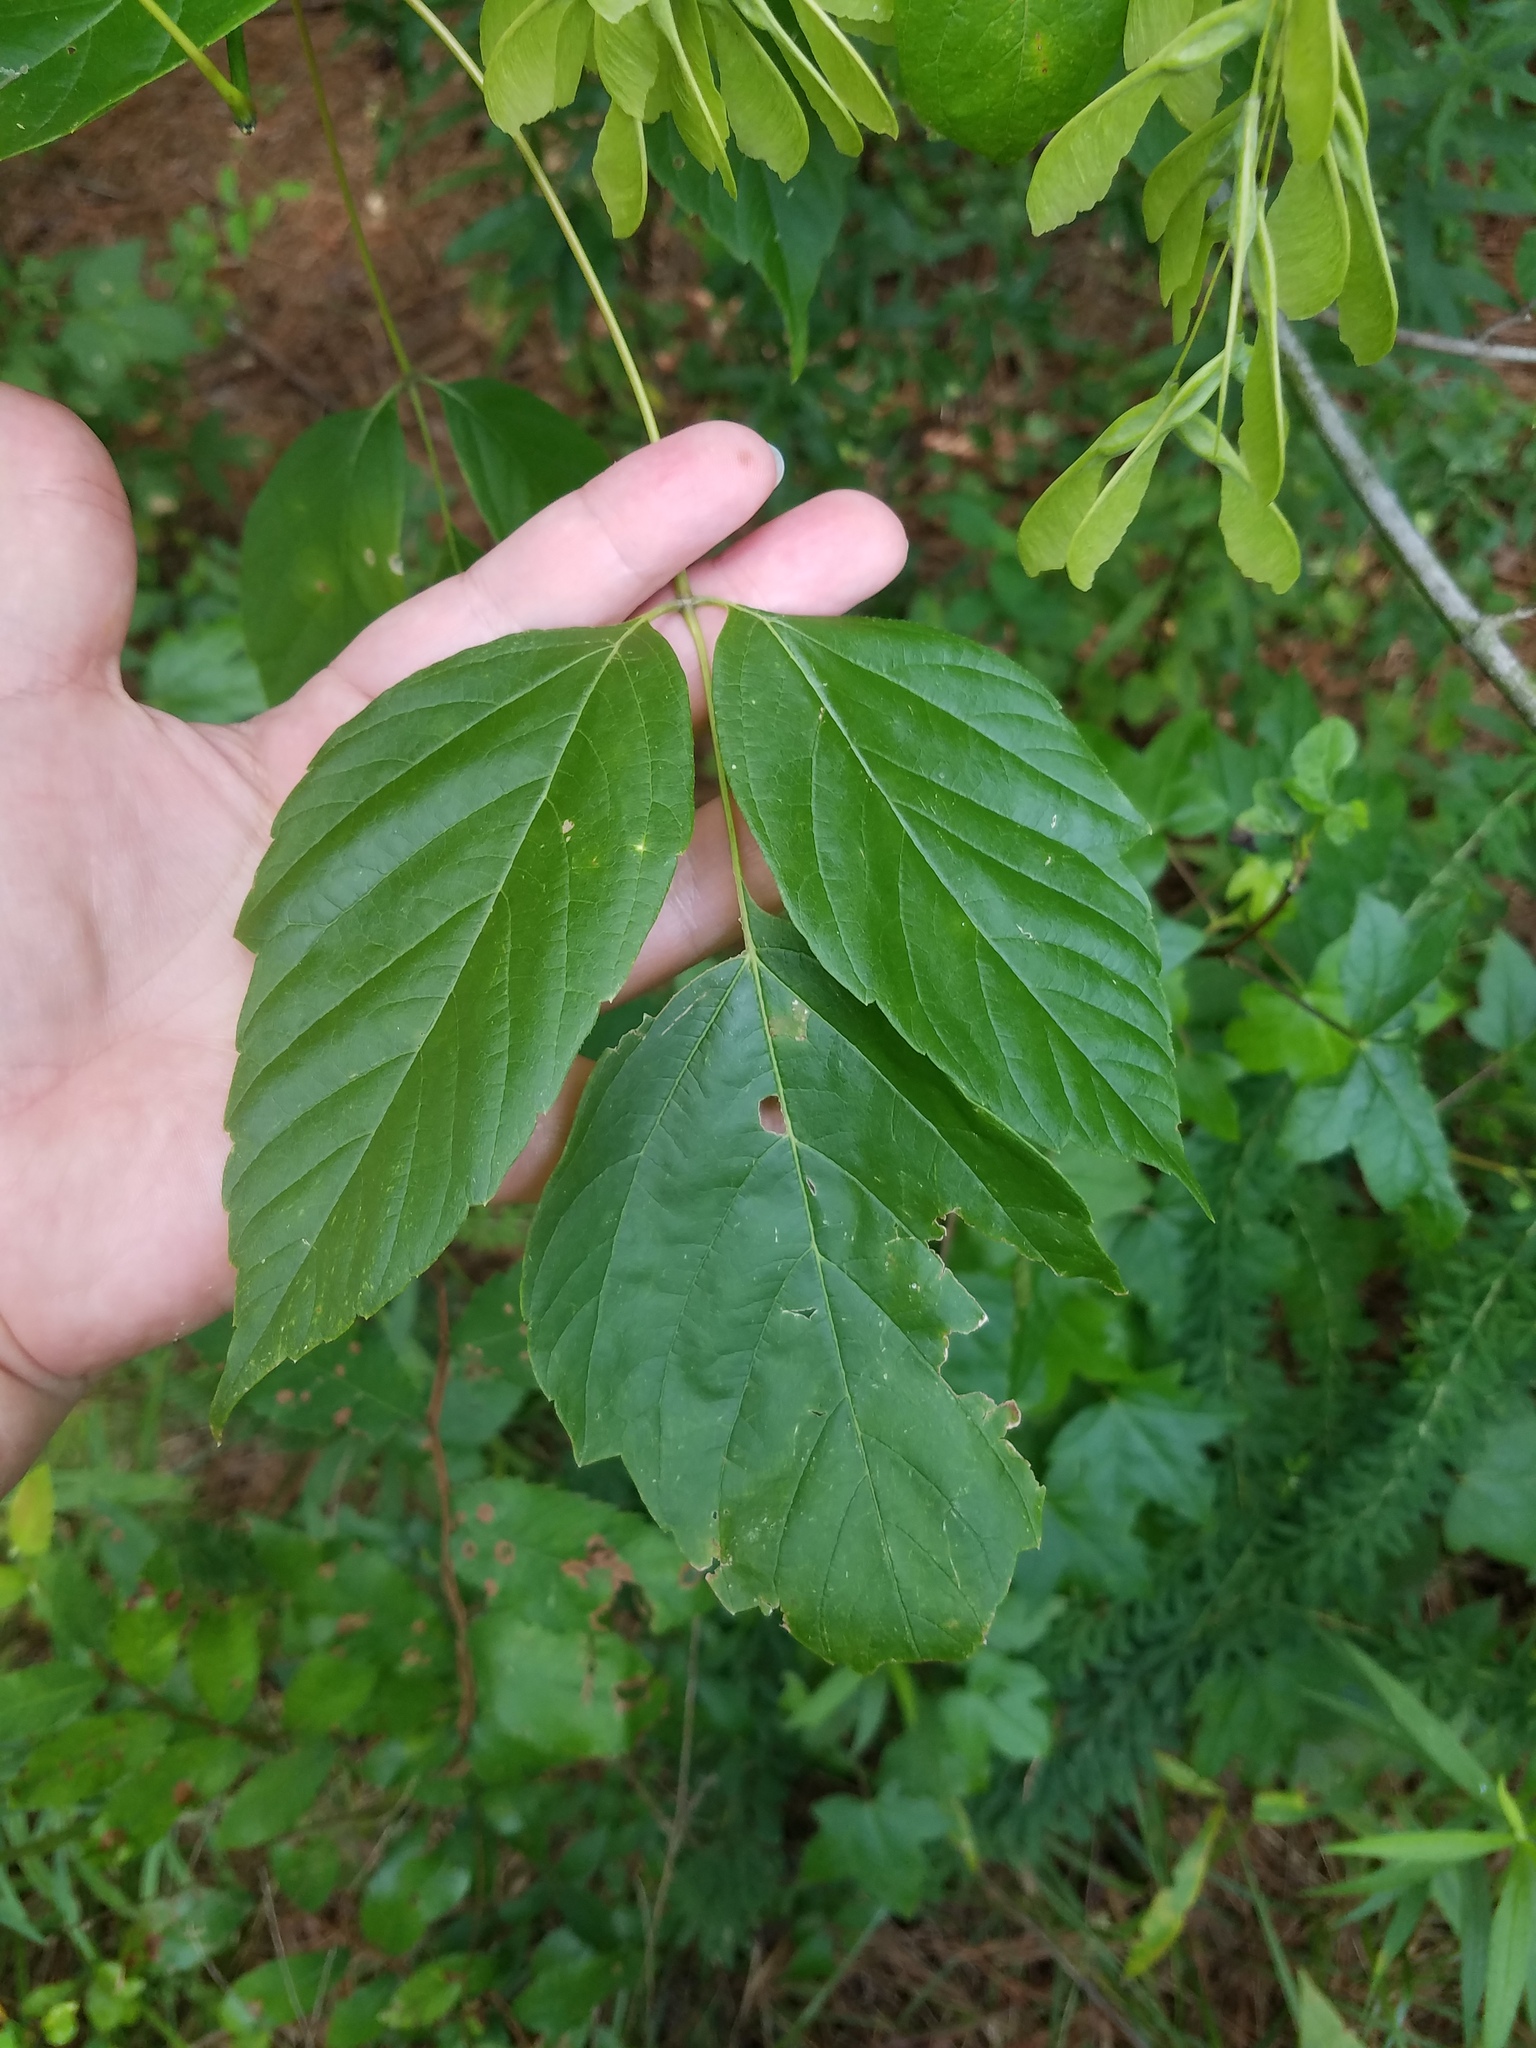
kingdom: Plantae
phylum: Tracheophyta
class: Magnoliopsida
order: Sapindales
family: Sapindaceae
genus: Acer
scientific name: Acer negundo
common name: Ashleaf maple
